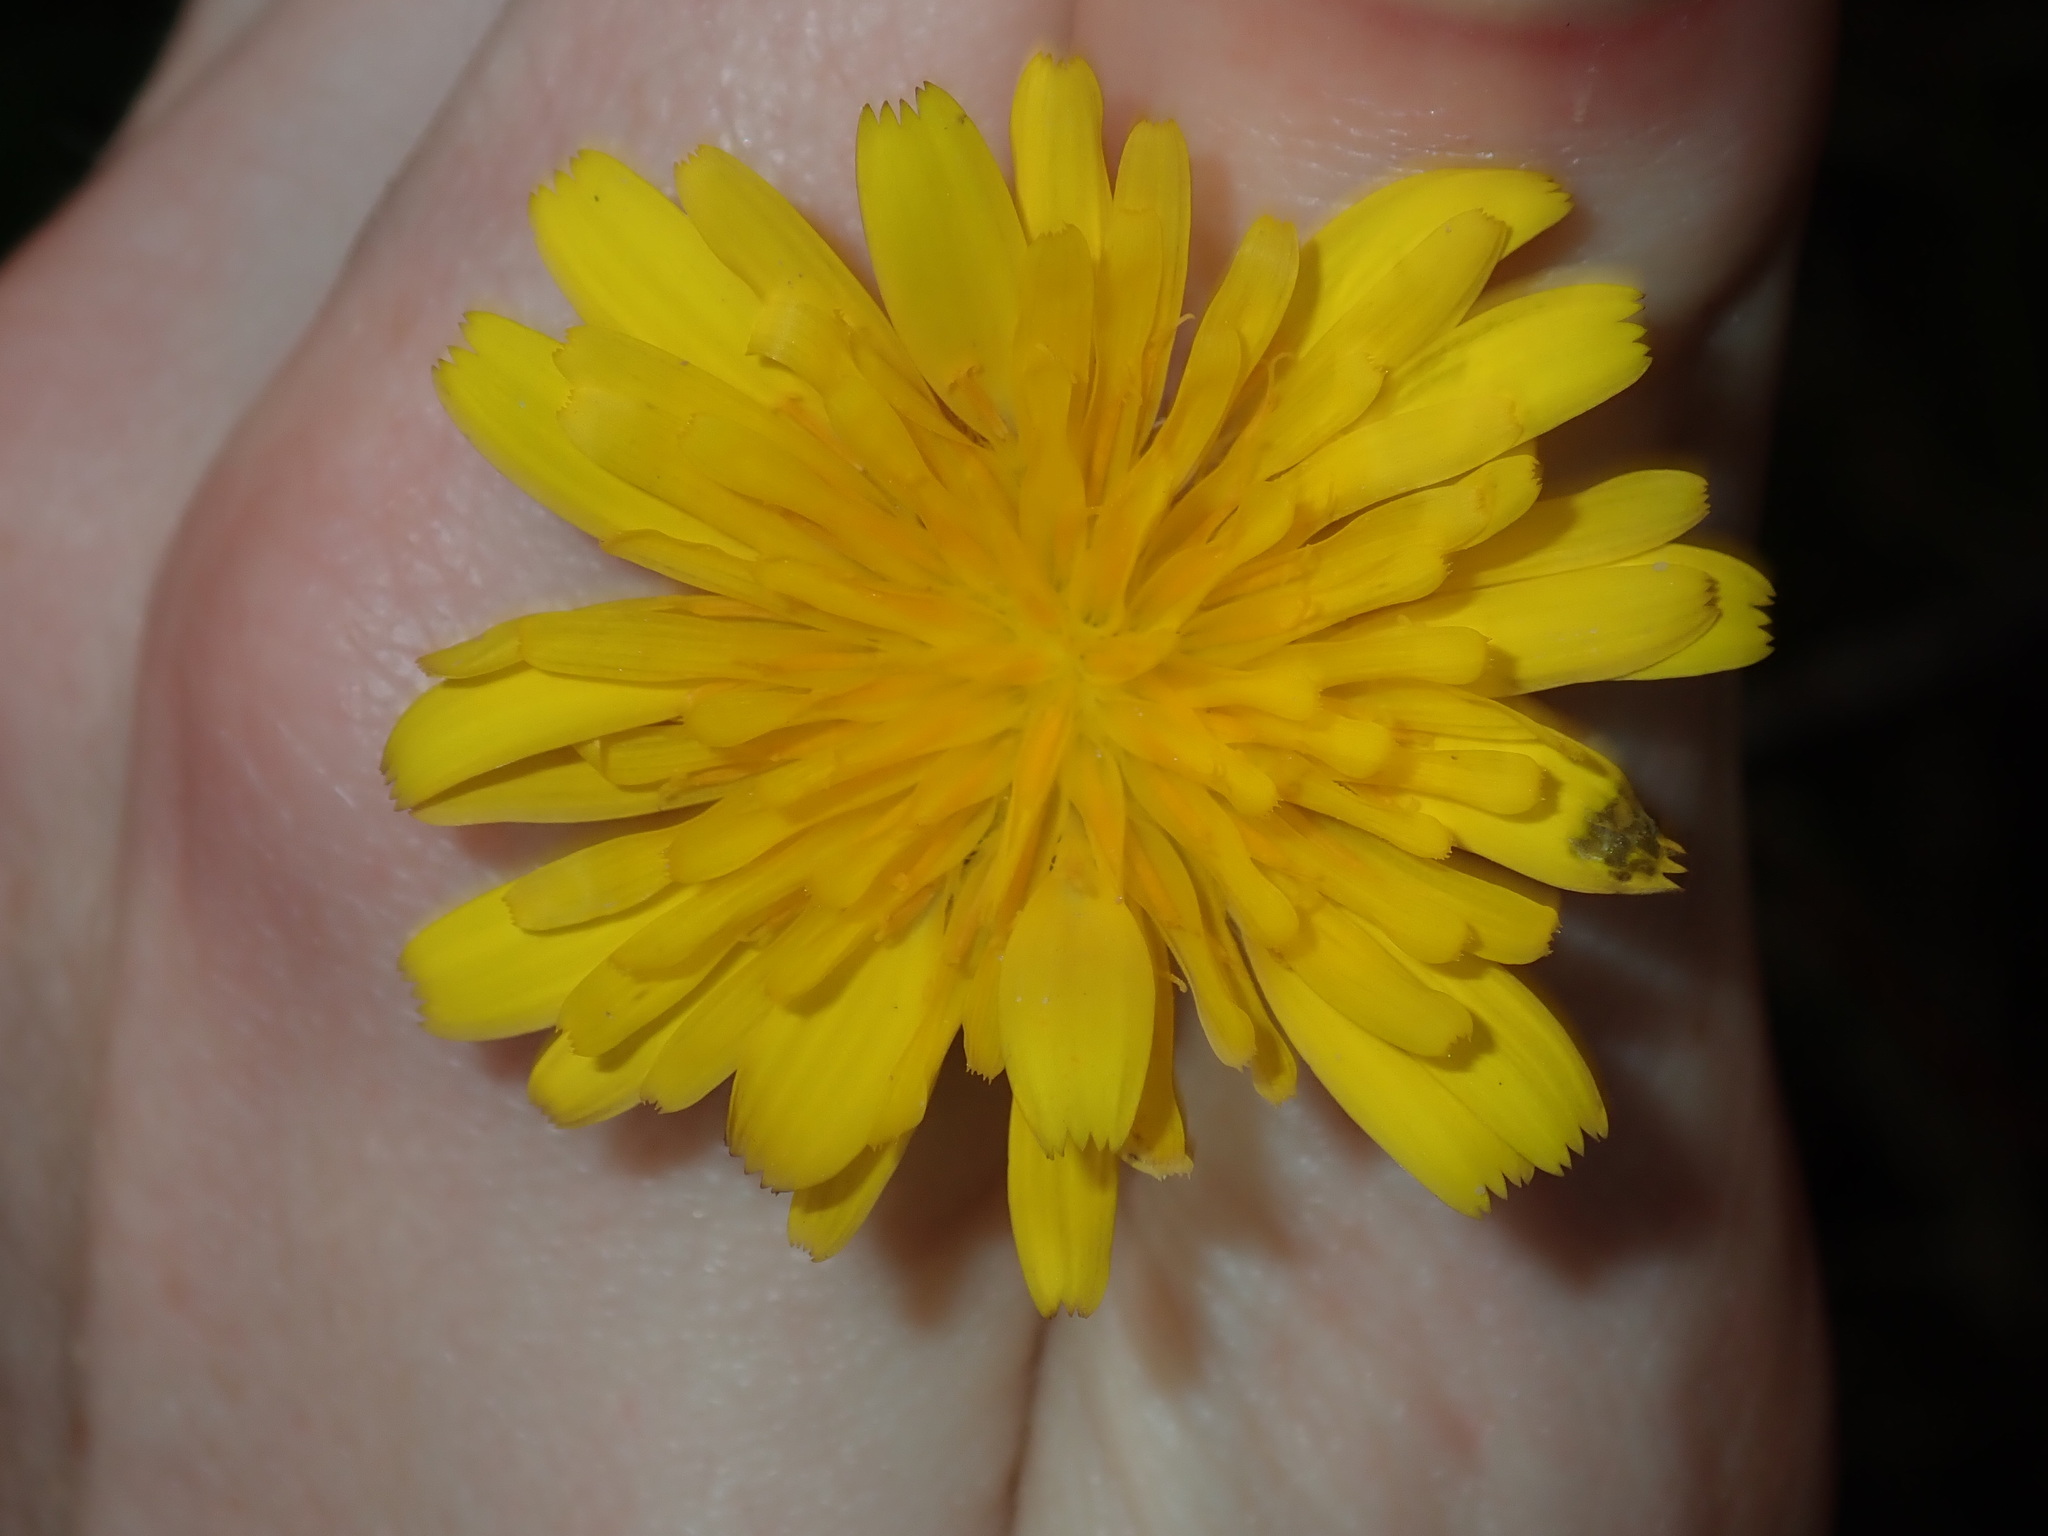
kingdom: Plantae
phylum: Tracheophyta
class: Magnoliopsida
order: Asterales
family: Asteraceae
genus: Hypochaeris
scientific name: Hypochaeris radicata
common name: Flatweed
